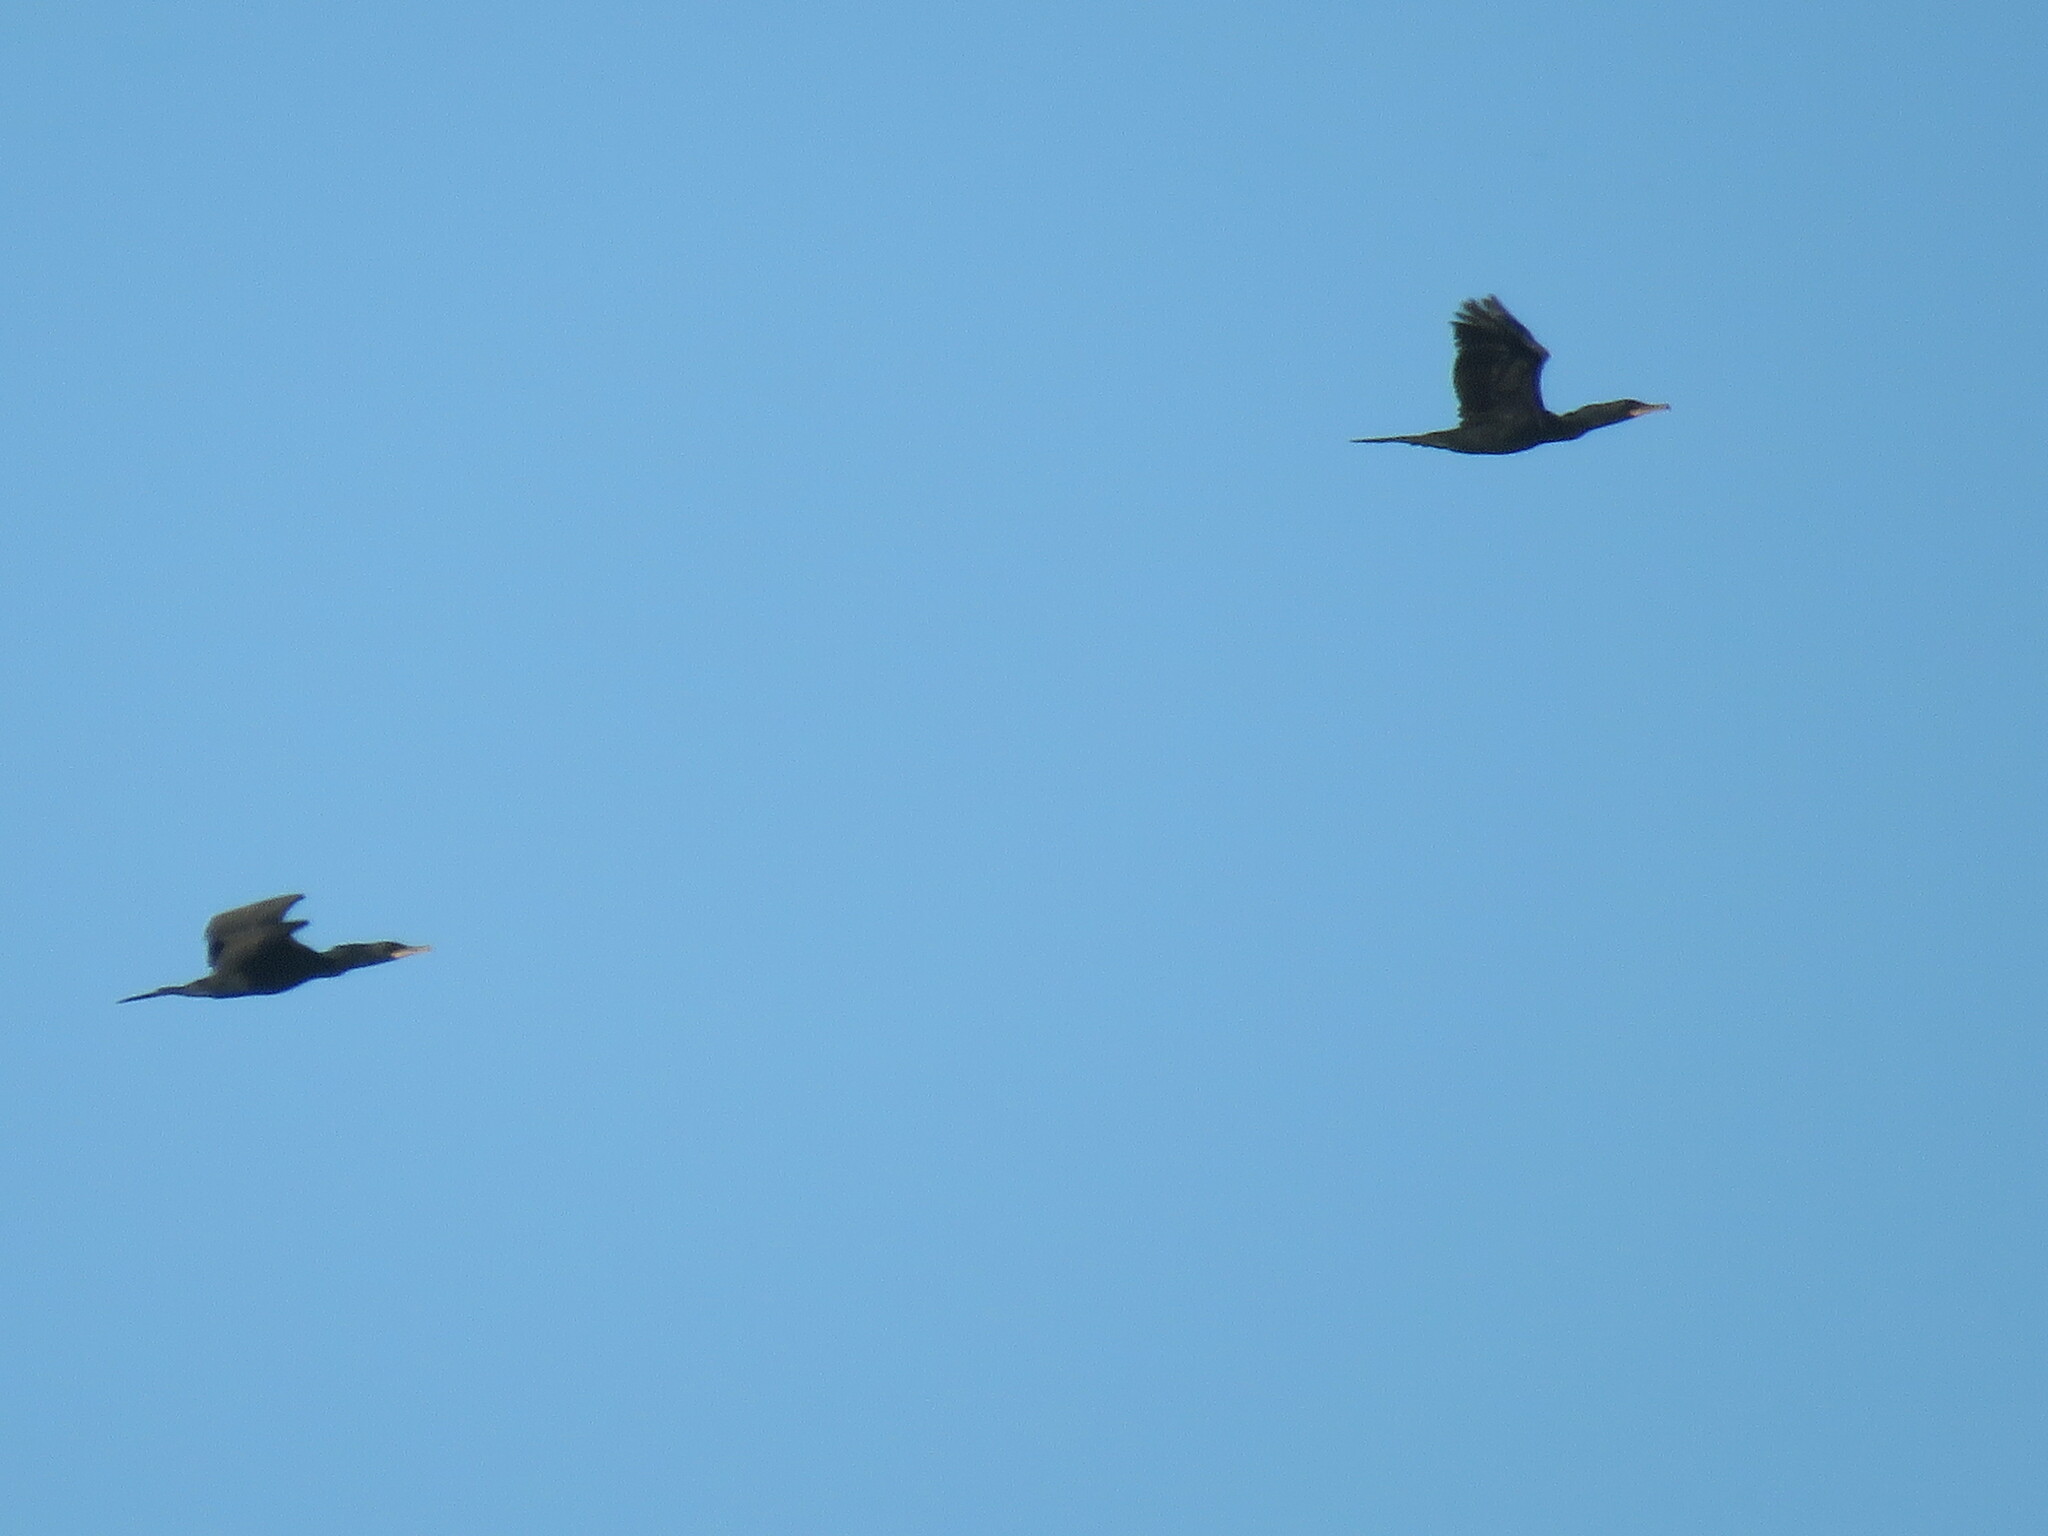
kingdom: Animalia
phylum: Chordata
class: Aves
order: Suliformes
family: Phalacrocoracidae
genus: Phalacrocorax
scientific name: Phalacrocorax brasilianus
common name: Neotropic cormorant
